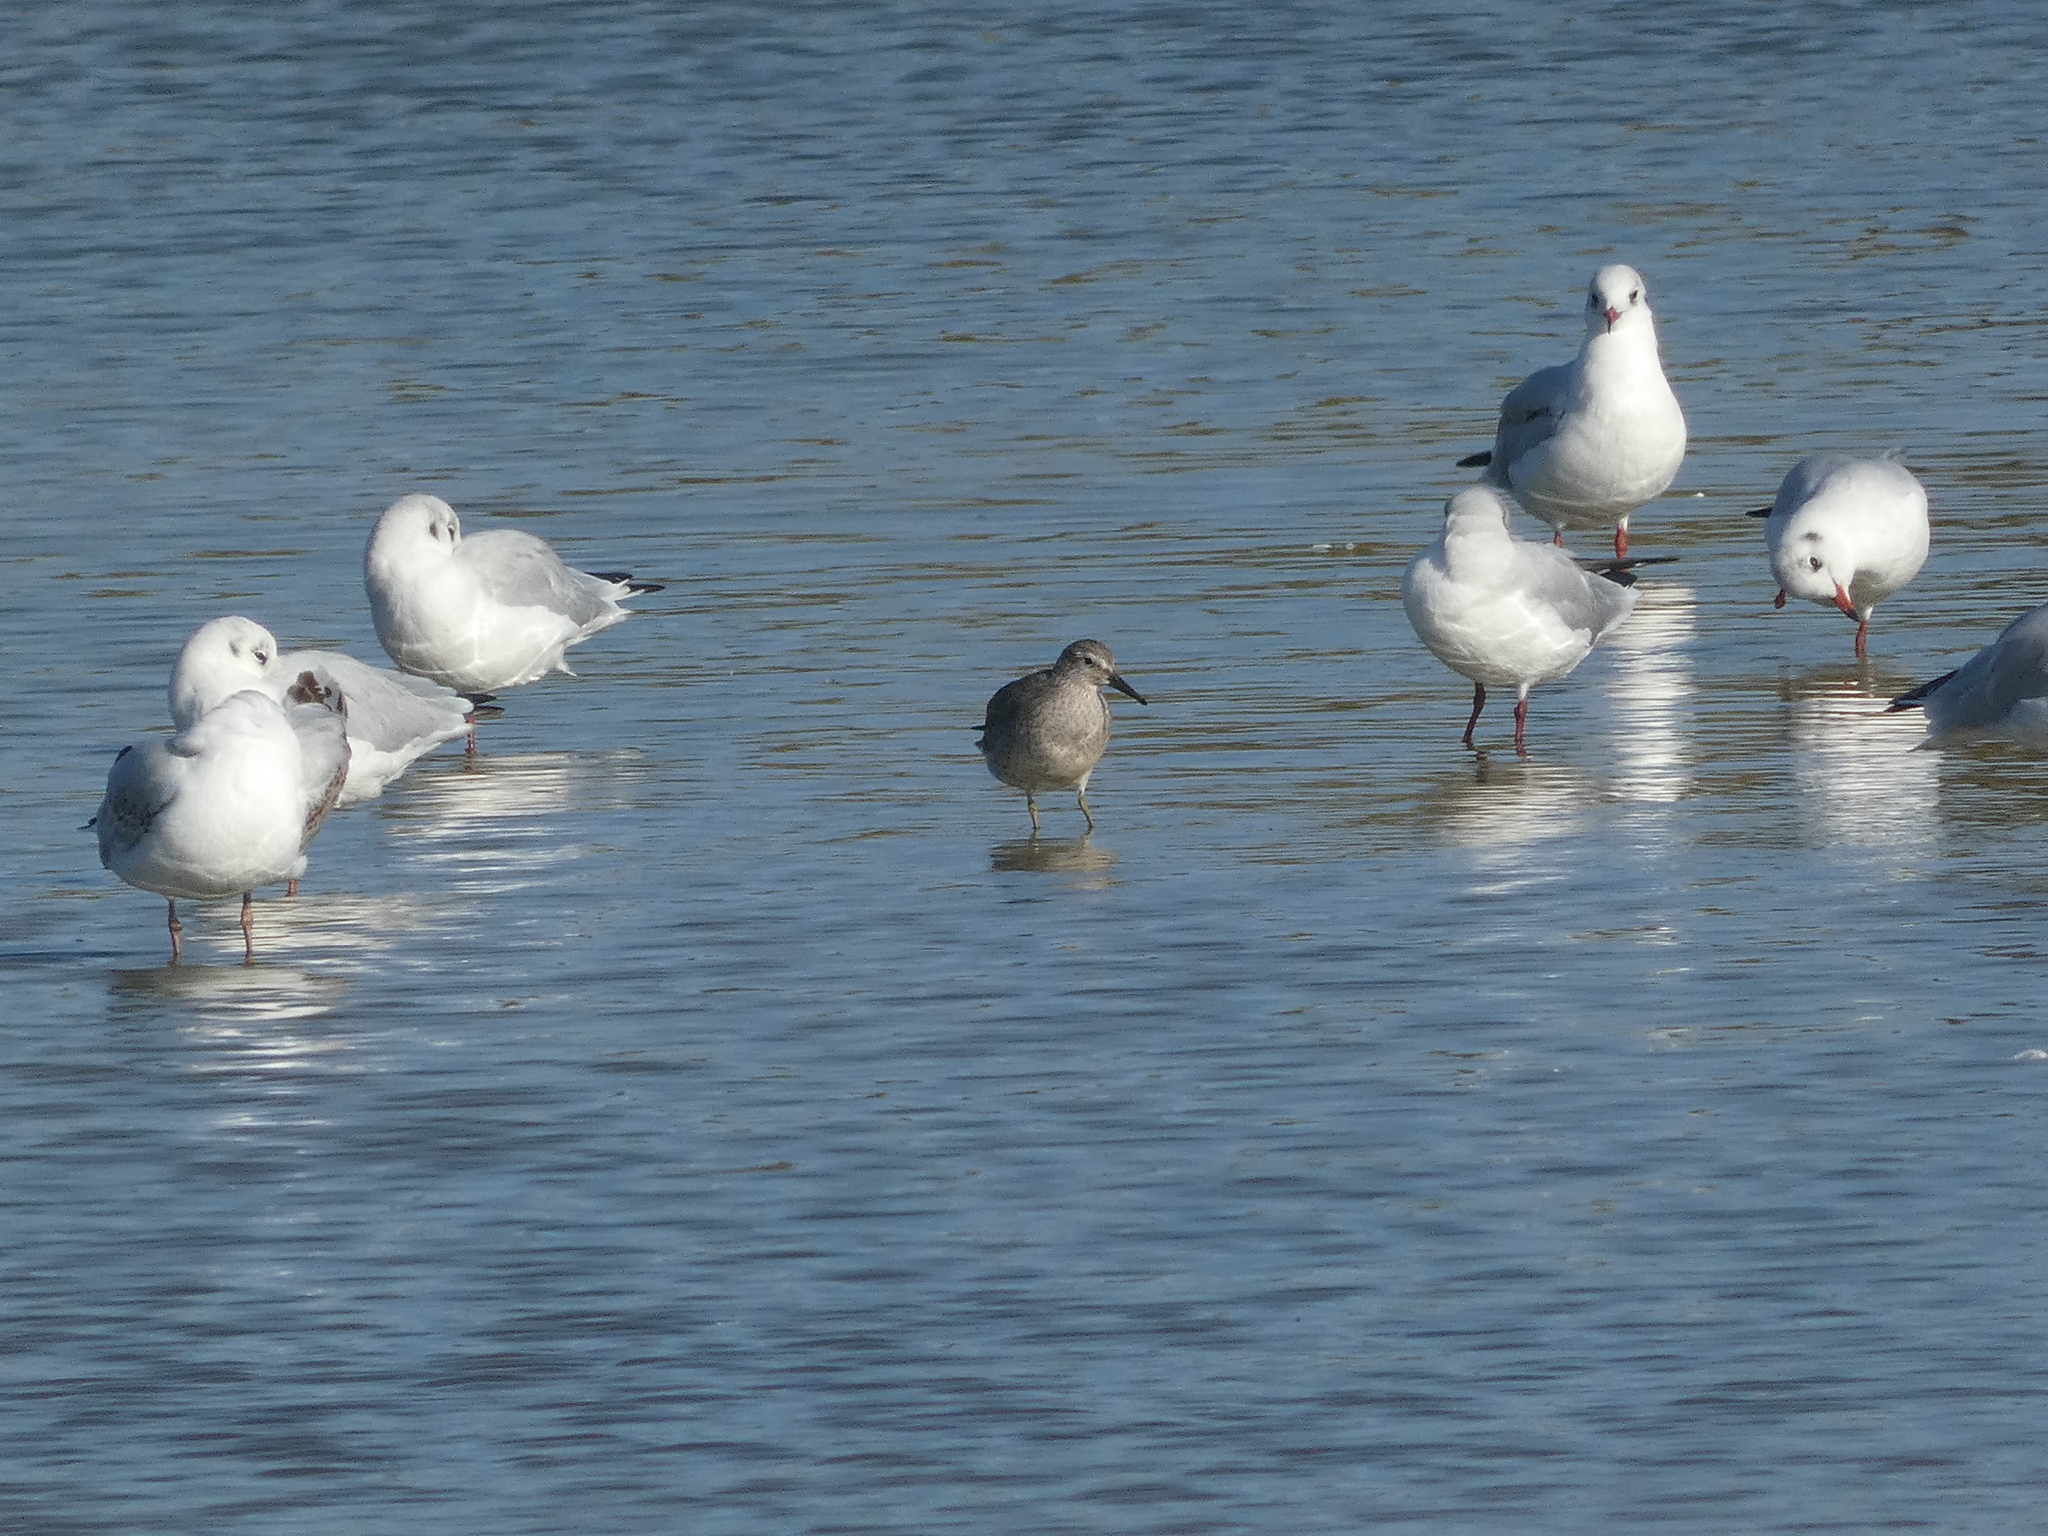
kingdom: Animalia
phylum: Chordata
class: Aves
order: Charadriiformes
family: Scolopacidae
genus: Calidris
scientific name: Calidris canutus
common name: Red knot
